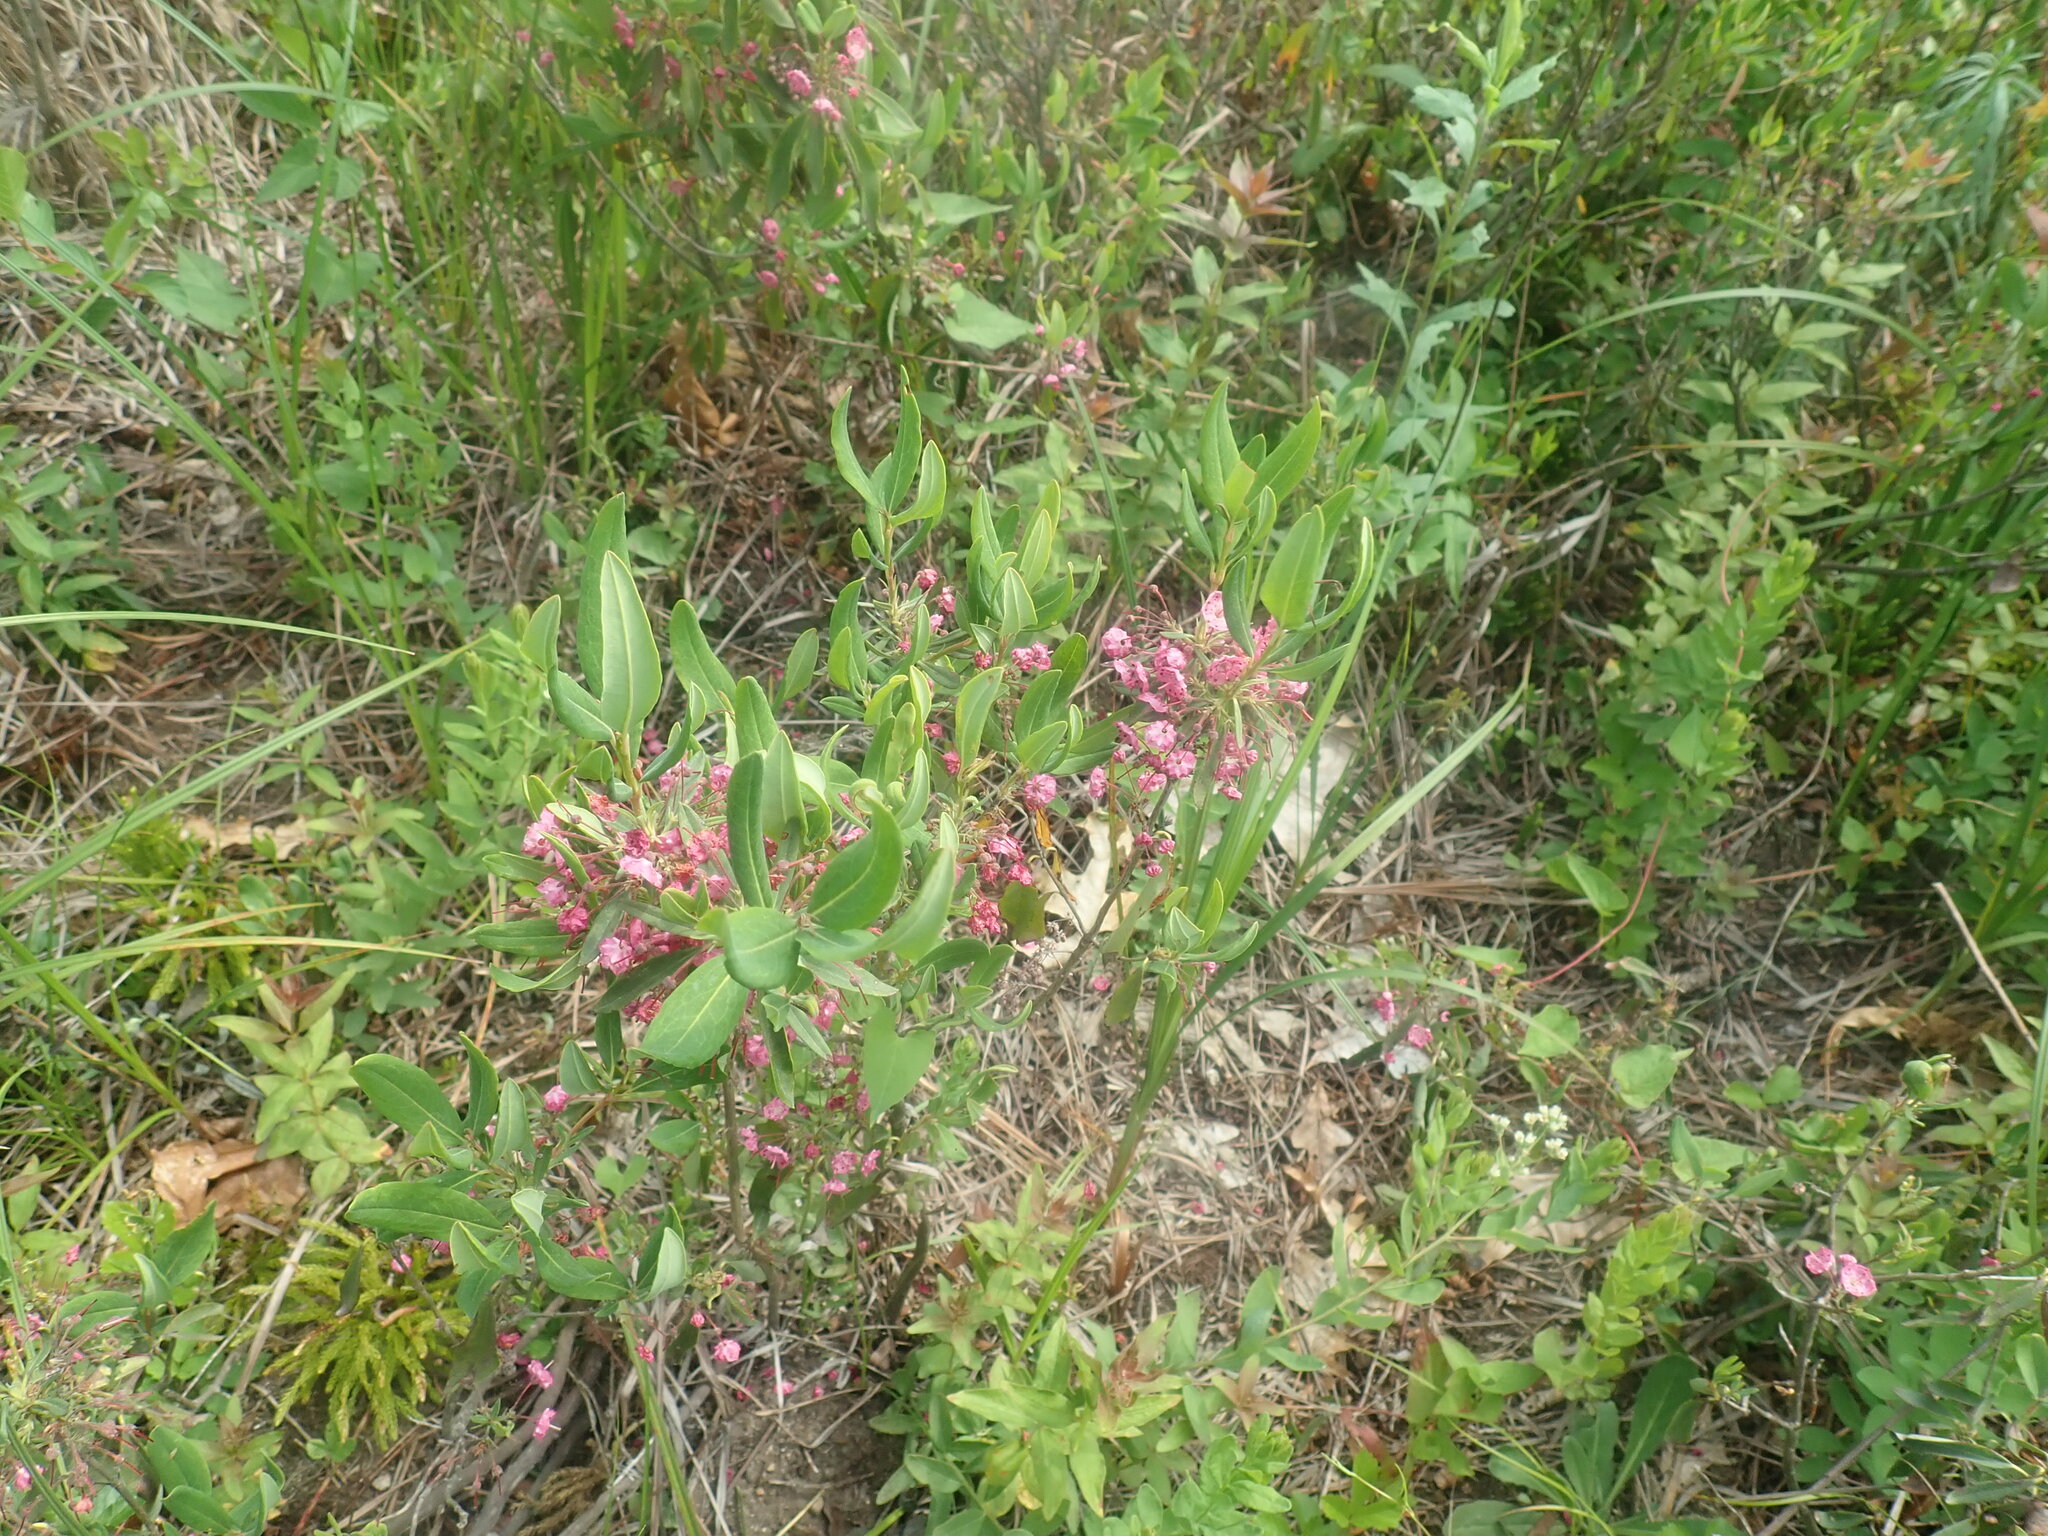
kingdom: Plantae
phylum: Tracheophyta
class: Magnoliopsida
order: Ericales
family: Ericaceae
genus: Kalmia
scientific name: Kalmia angustifolia
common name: Sheep-laurel
